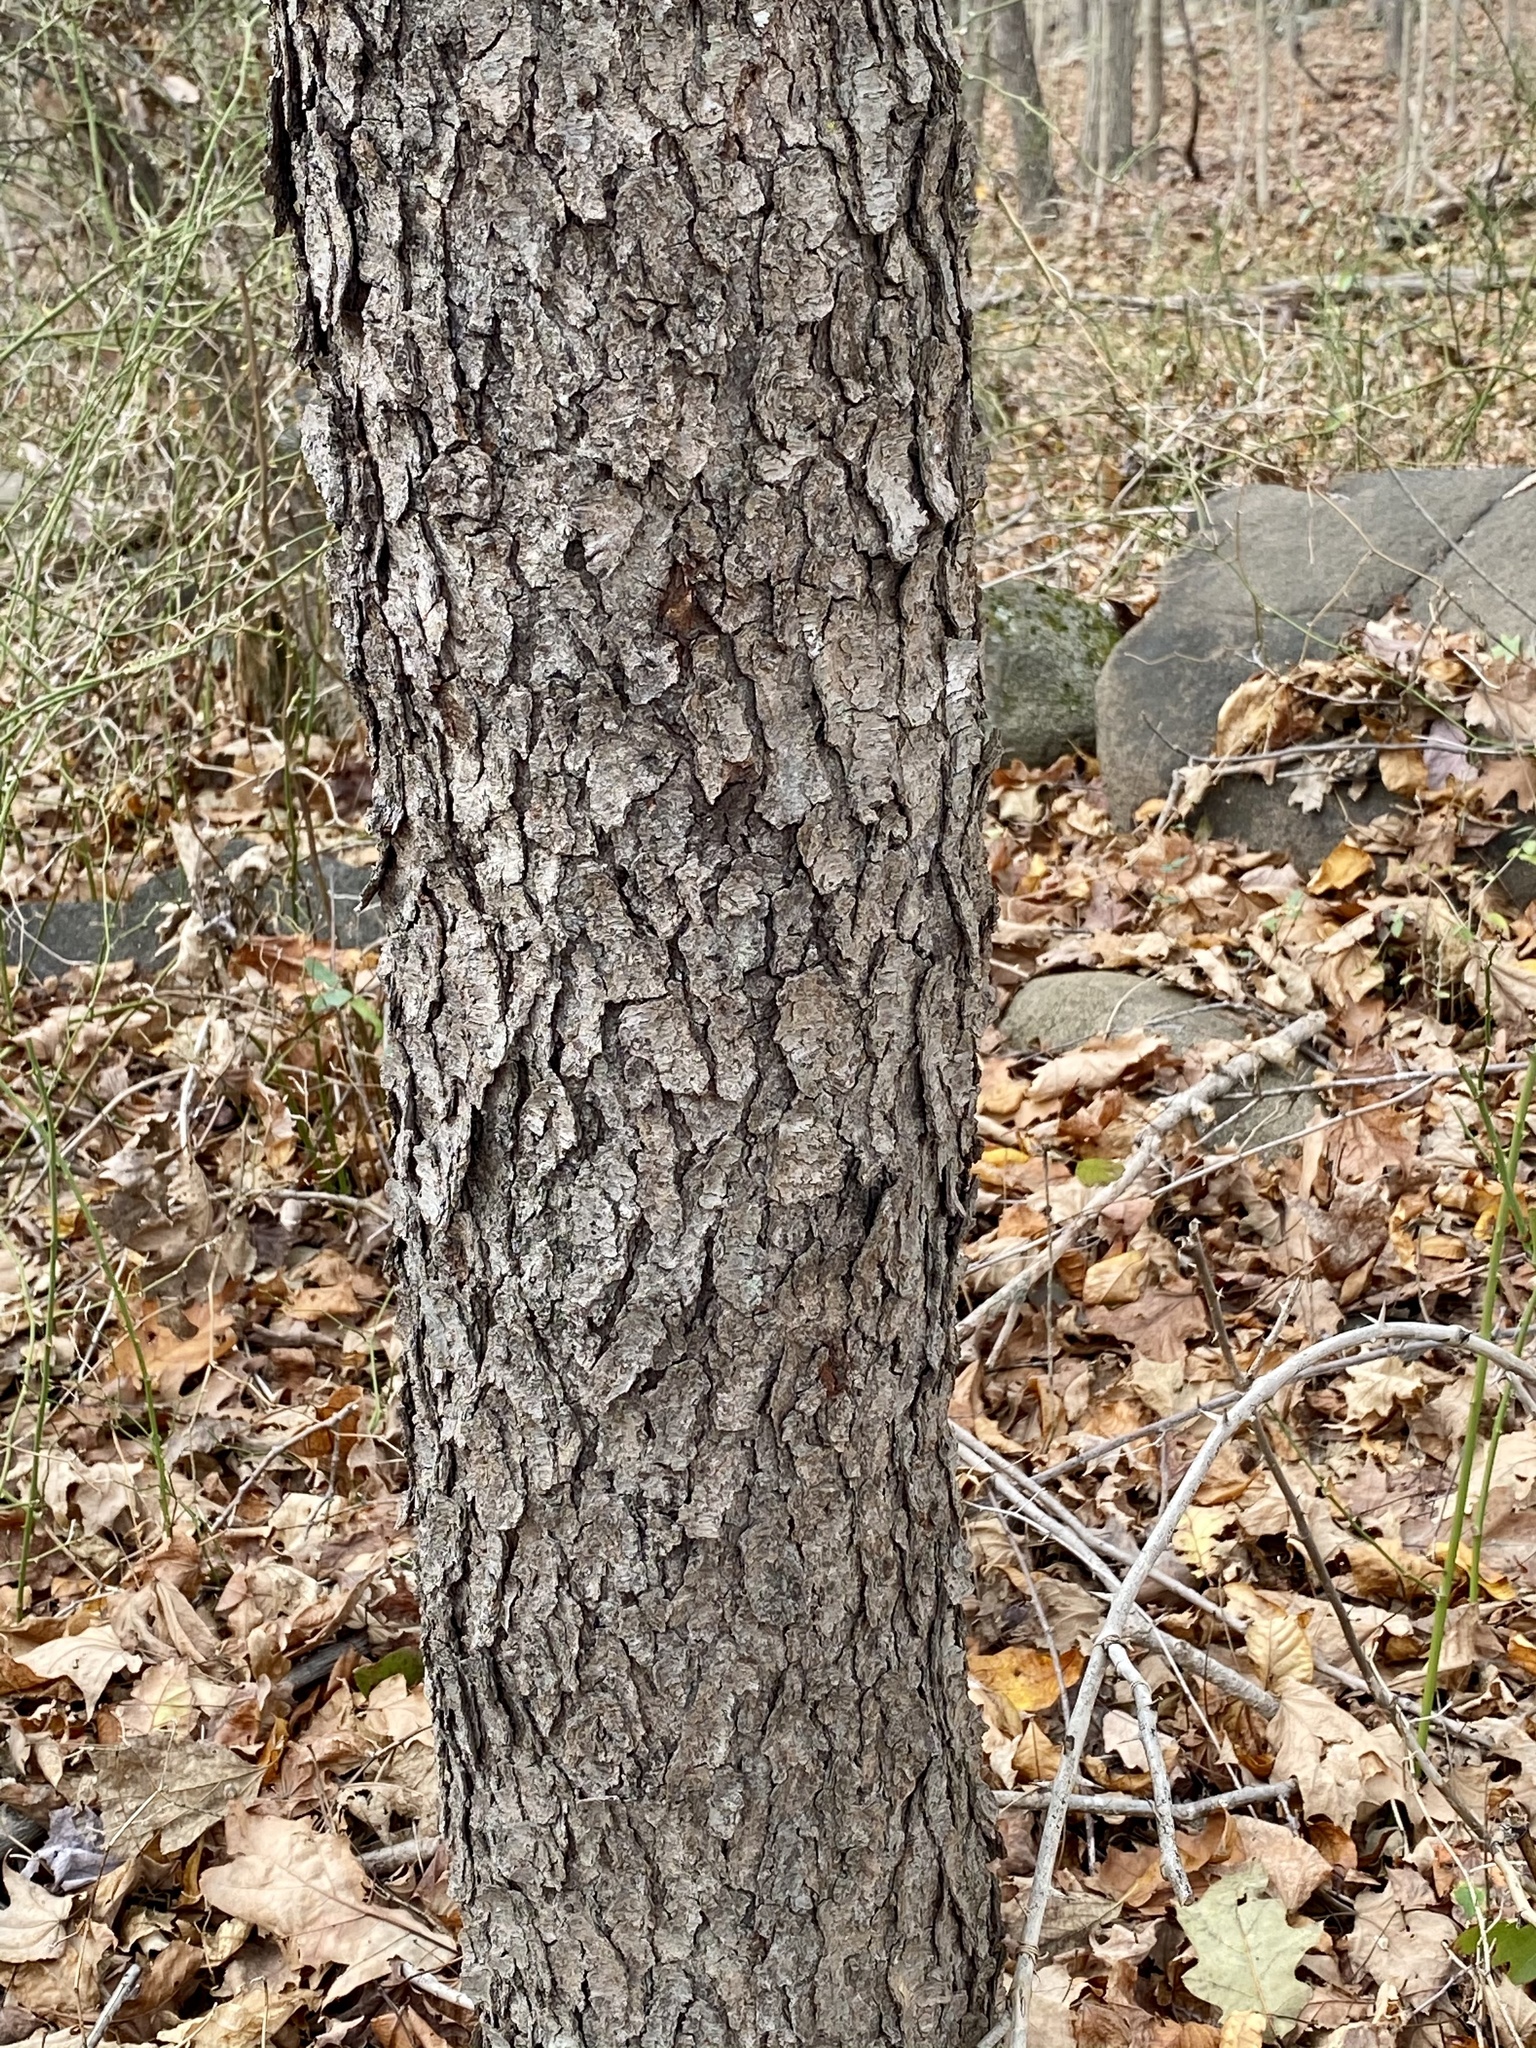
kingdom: Plantae
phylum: Tracheophyta
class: Magnoliopsida
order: Rosales
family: Rosaceae
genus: Prunus
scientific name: Prunus serotina
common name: Black cherry
